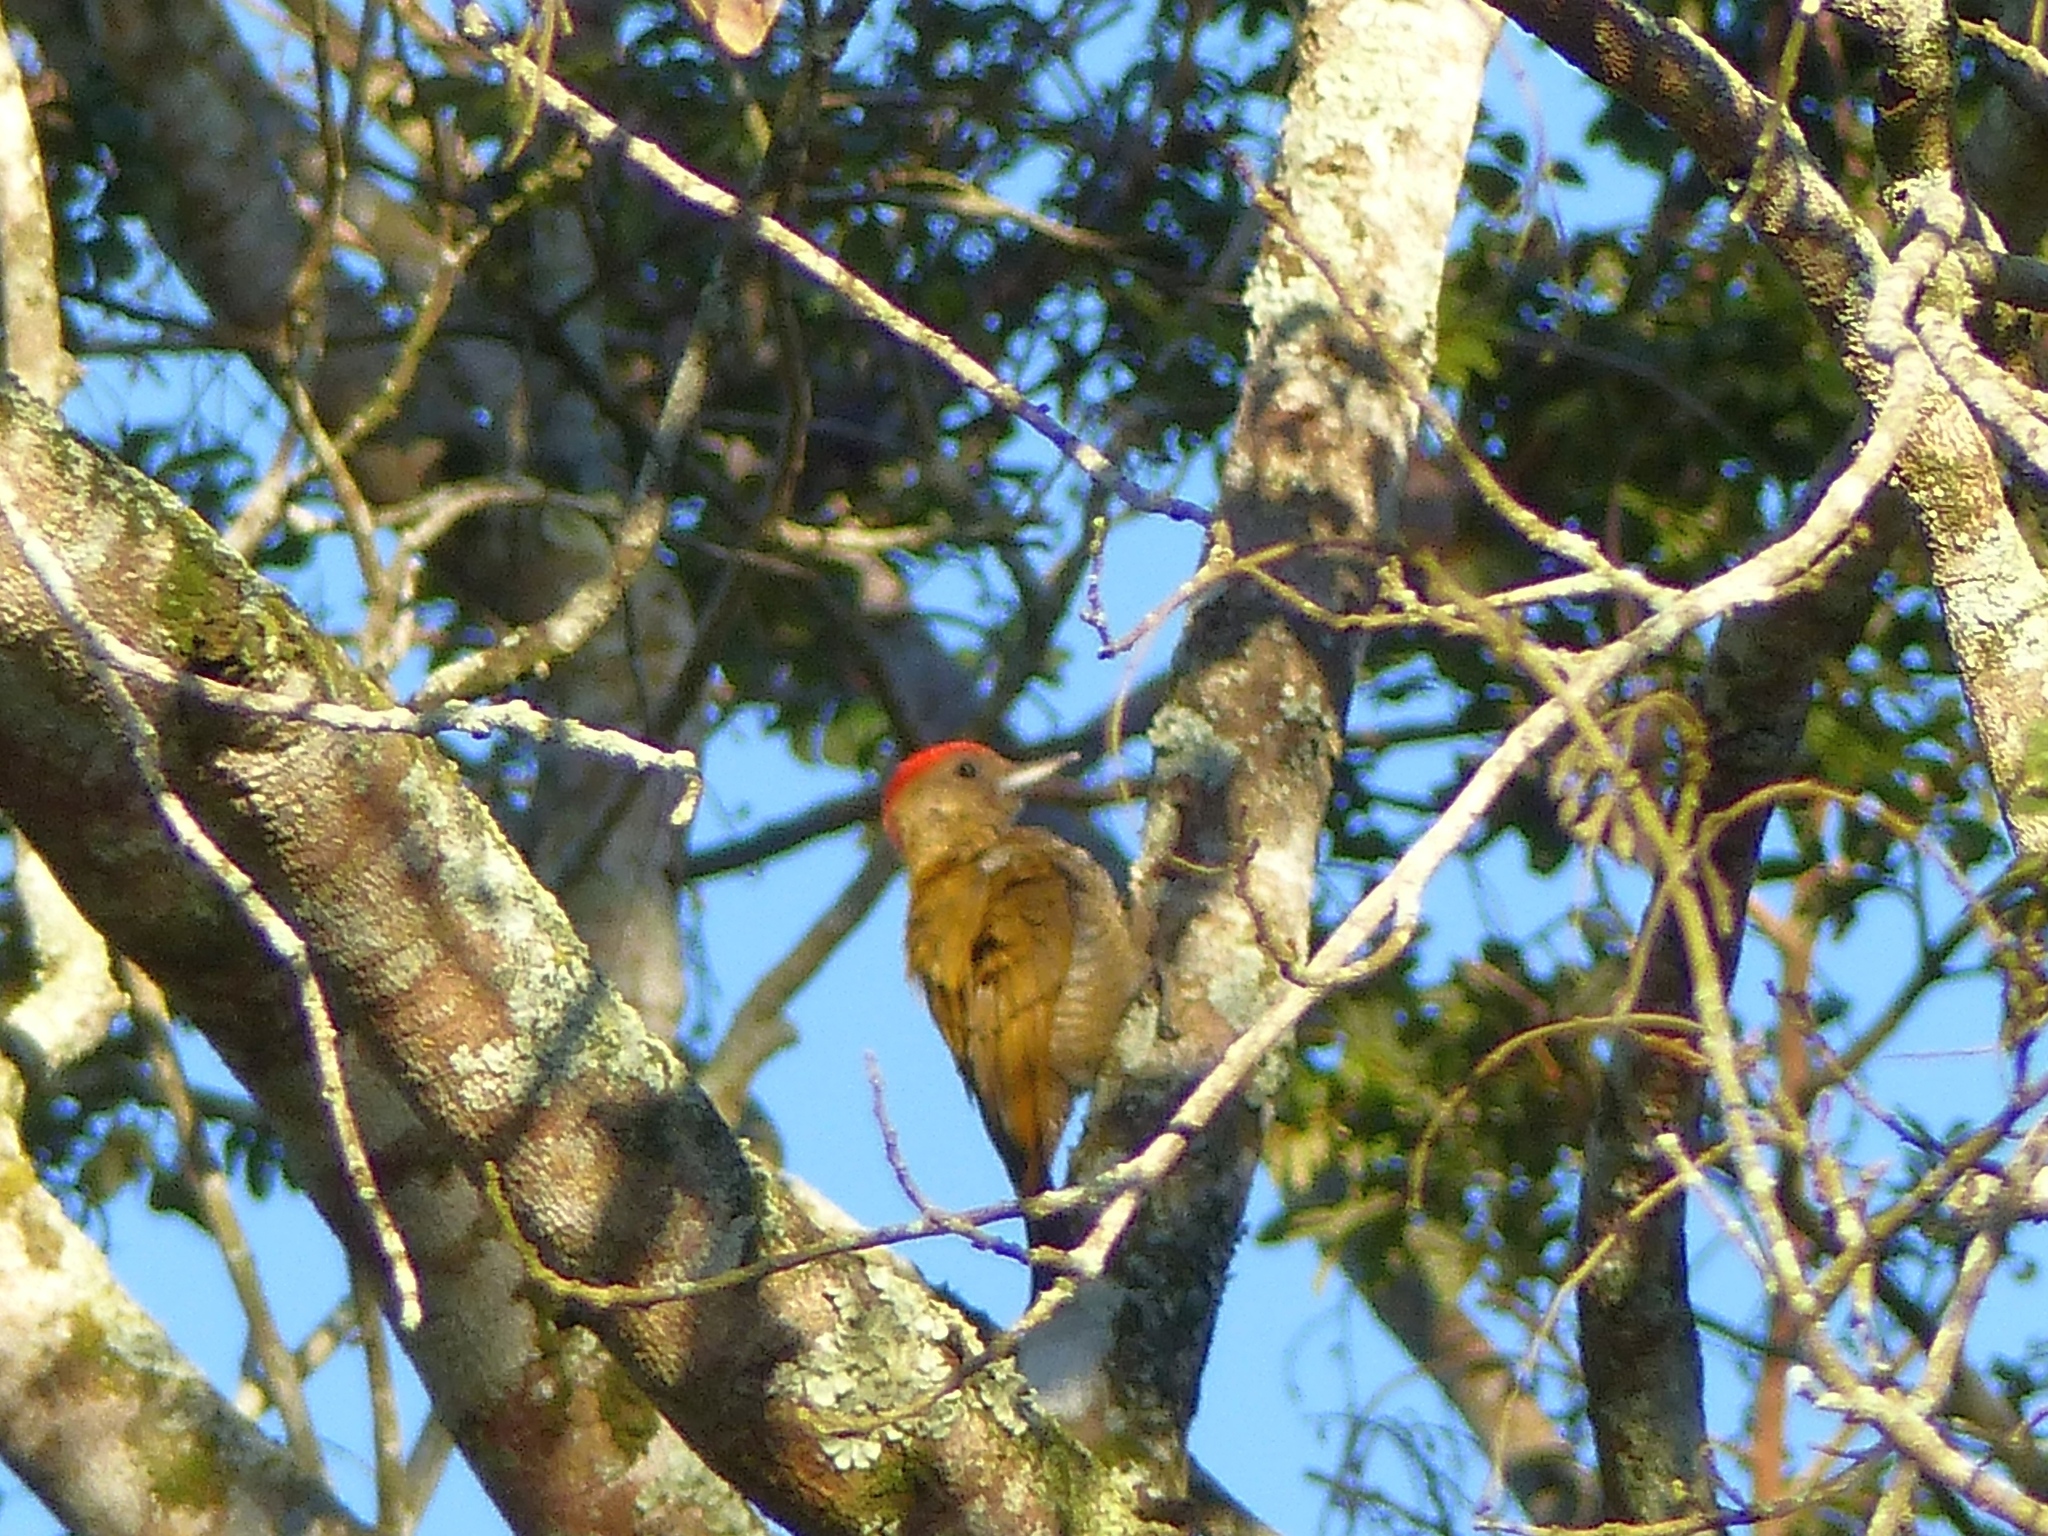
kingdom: Animalia
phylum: Chordata
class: Aves
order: Piciformes
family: Picidae
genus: Veniliornis
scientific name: Veniliornis passerinus
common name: Little woodpecker
